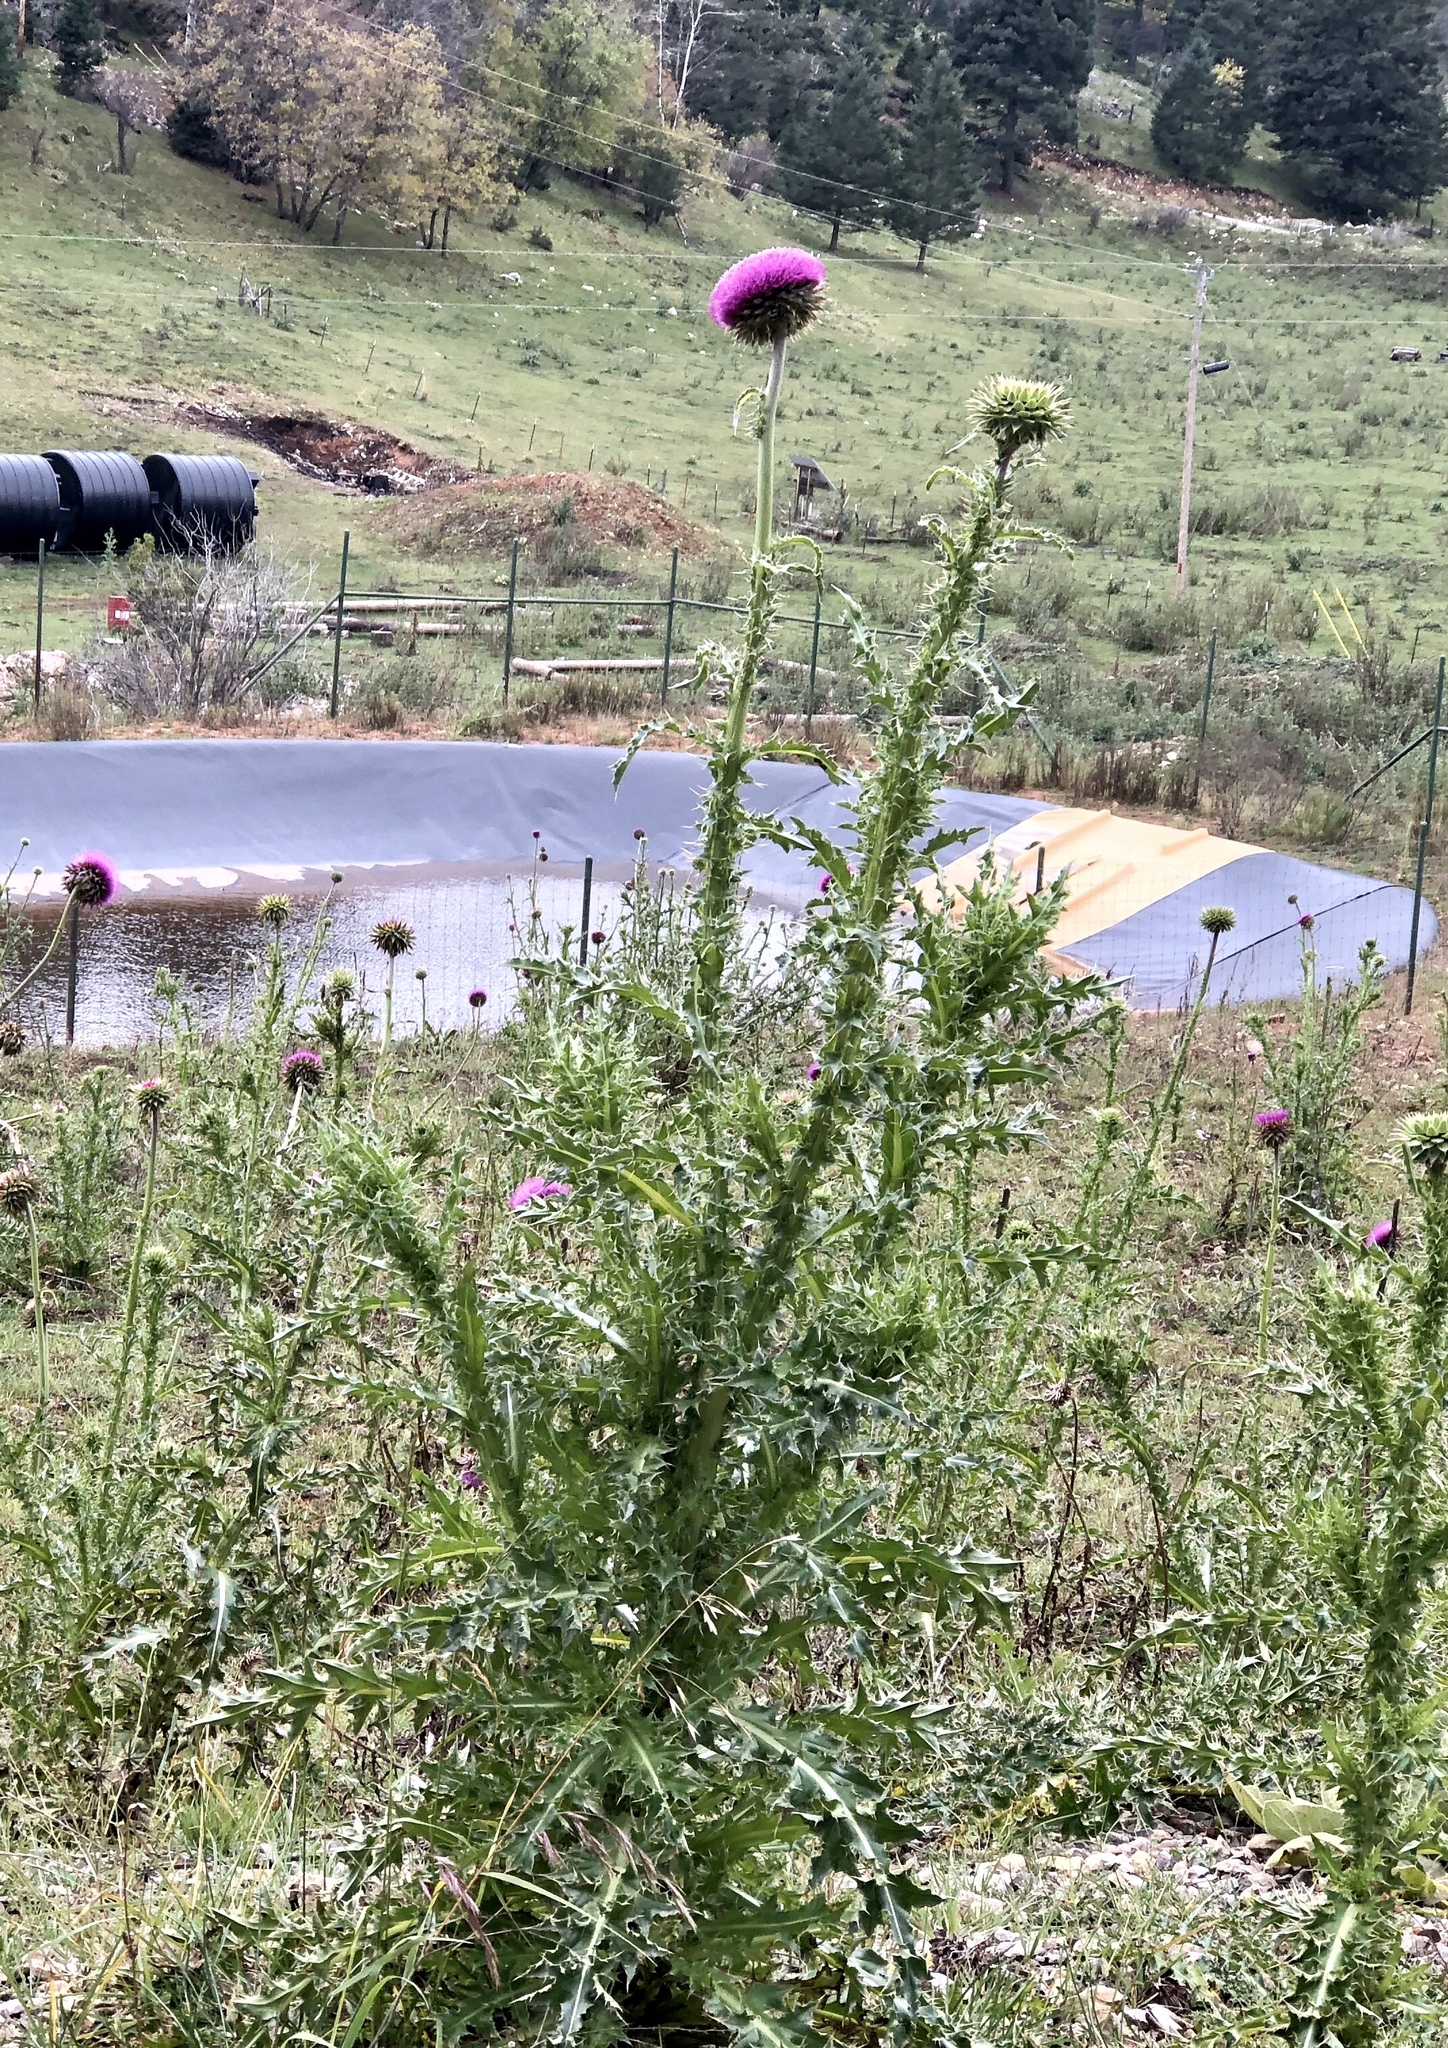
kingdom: Plantae
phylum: Tracheophyta
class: Magnoliopsida
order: Asterales
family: Asteraceae
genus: Carduus
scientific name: Carduus nutans
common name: Musk thistle
